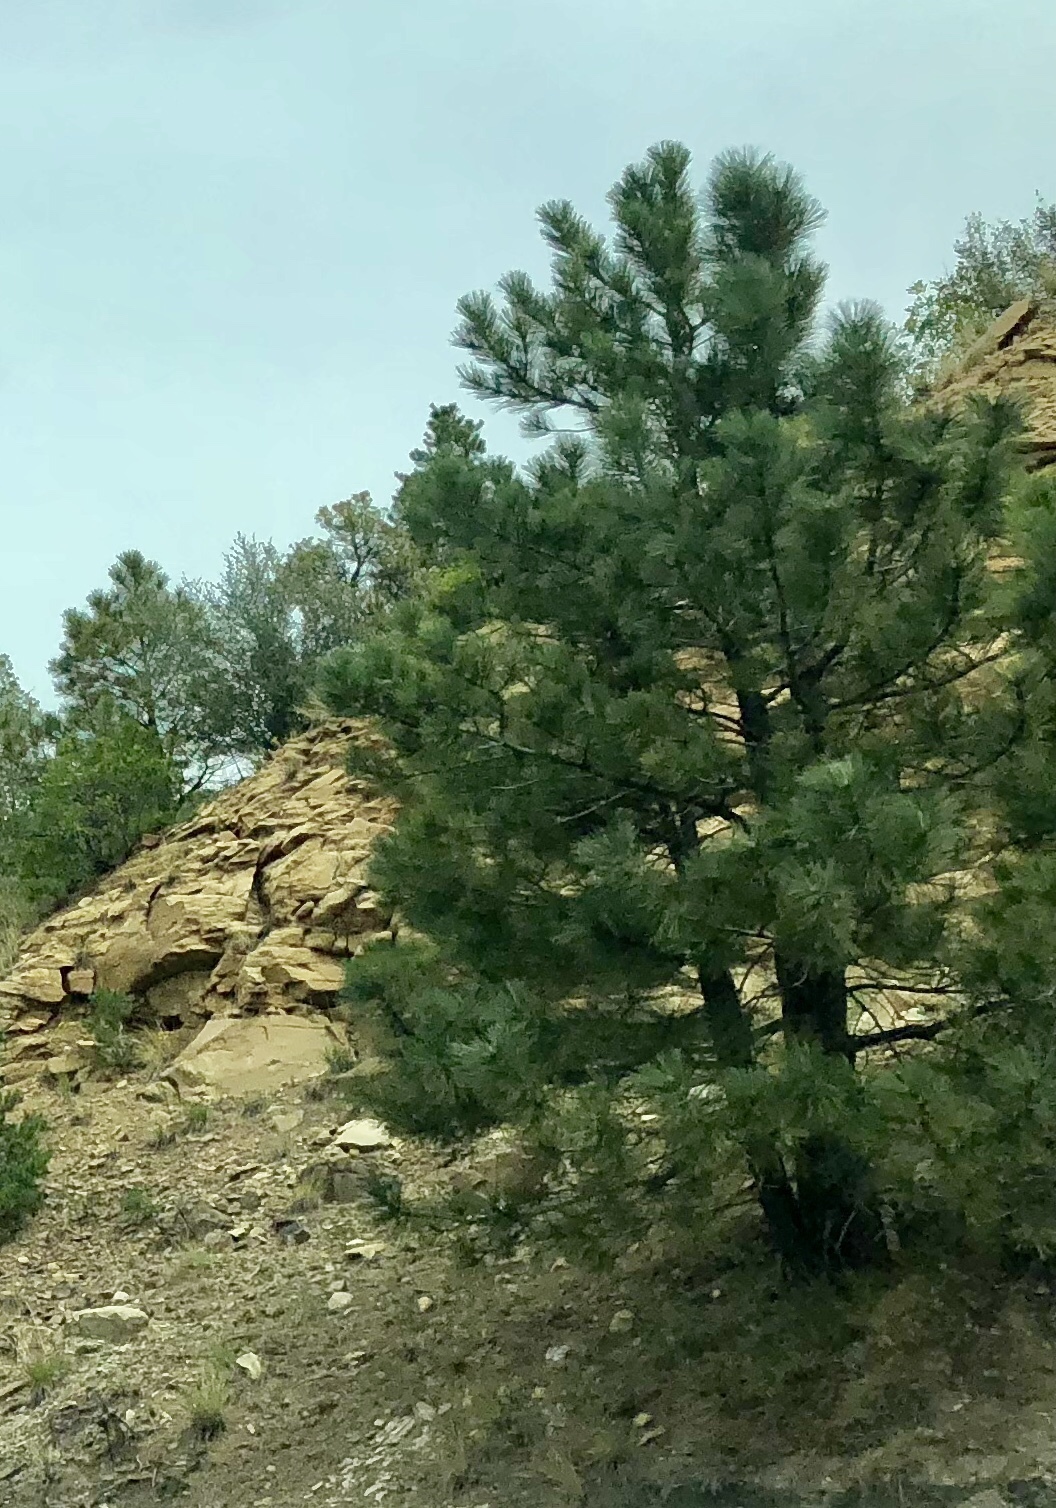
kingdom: Plantae
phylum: Tracheophyta
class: Pinopsida
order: Pinales
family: Pinaceae
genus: Pinus
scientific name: Pinus ponderosa
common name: Western yellow-pine
